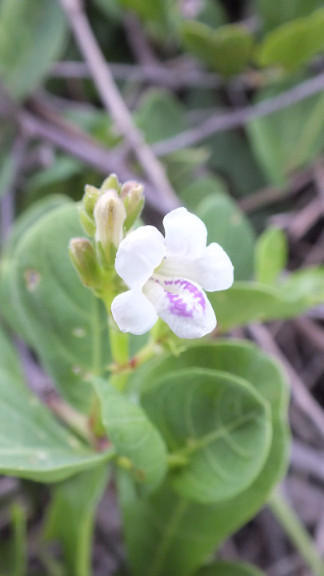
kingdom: Plantae
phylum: Tracheophyta
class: Magnoliopsida
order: Lamiales
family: Acanthaceae
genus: Asystasia
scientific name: Asystasia intrusa
